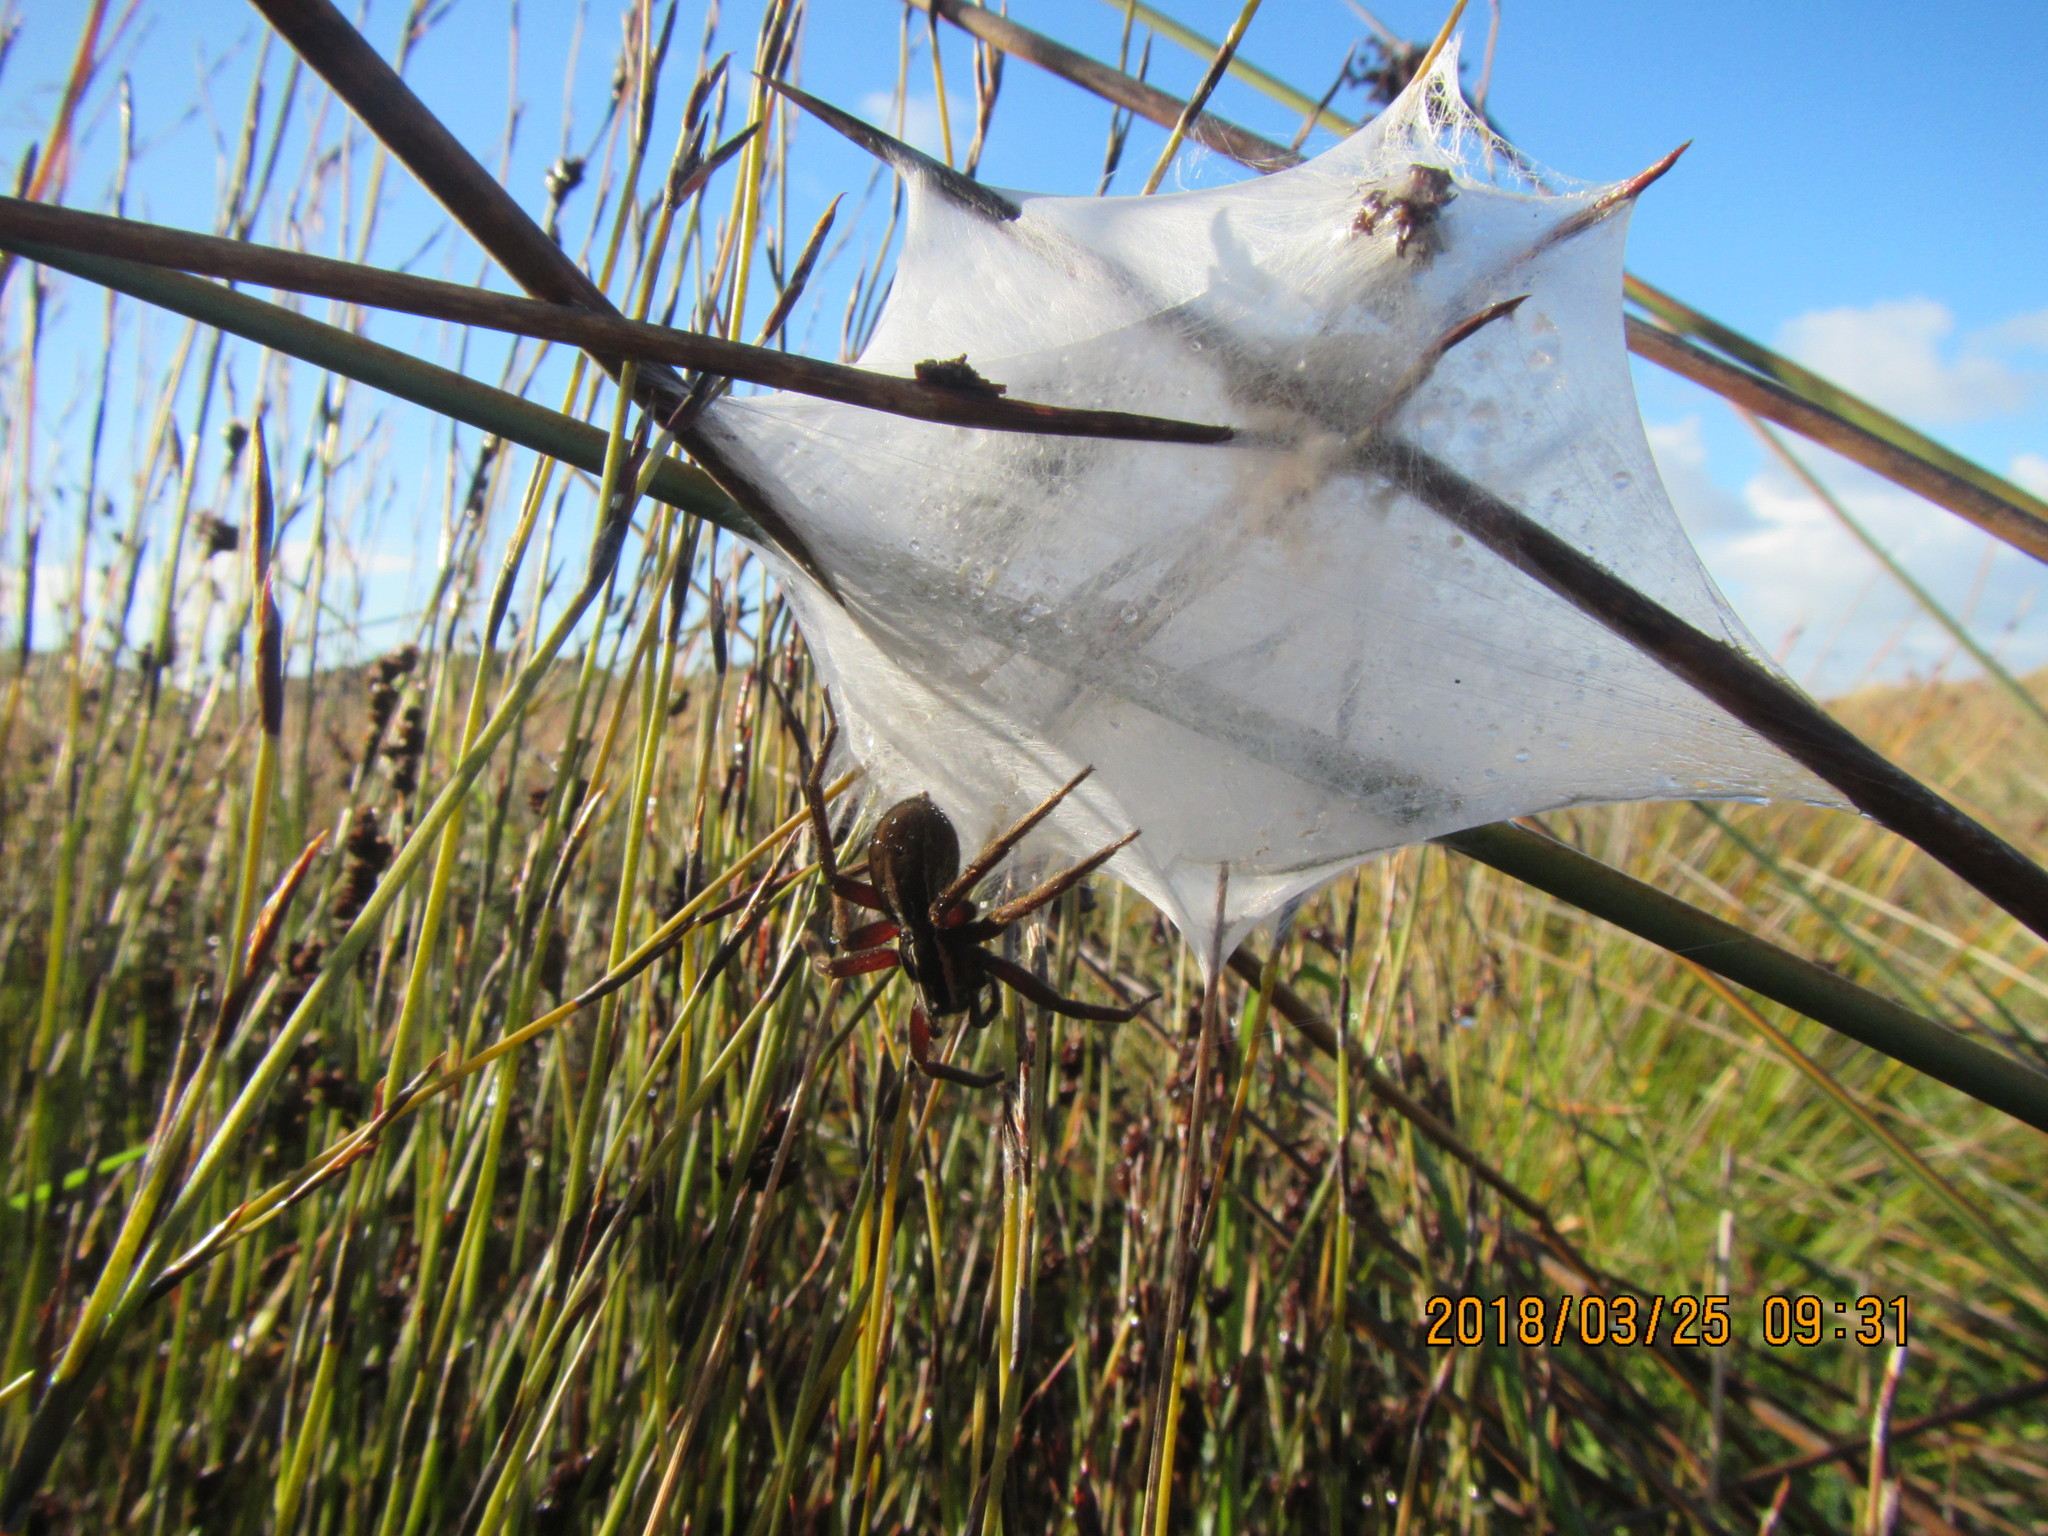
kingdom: Animalia
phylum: Arthropoda
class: Arachnida
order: Araneae
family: Pisauridae
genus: Dolomedes
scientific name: Dolomedes minor
